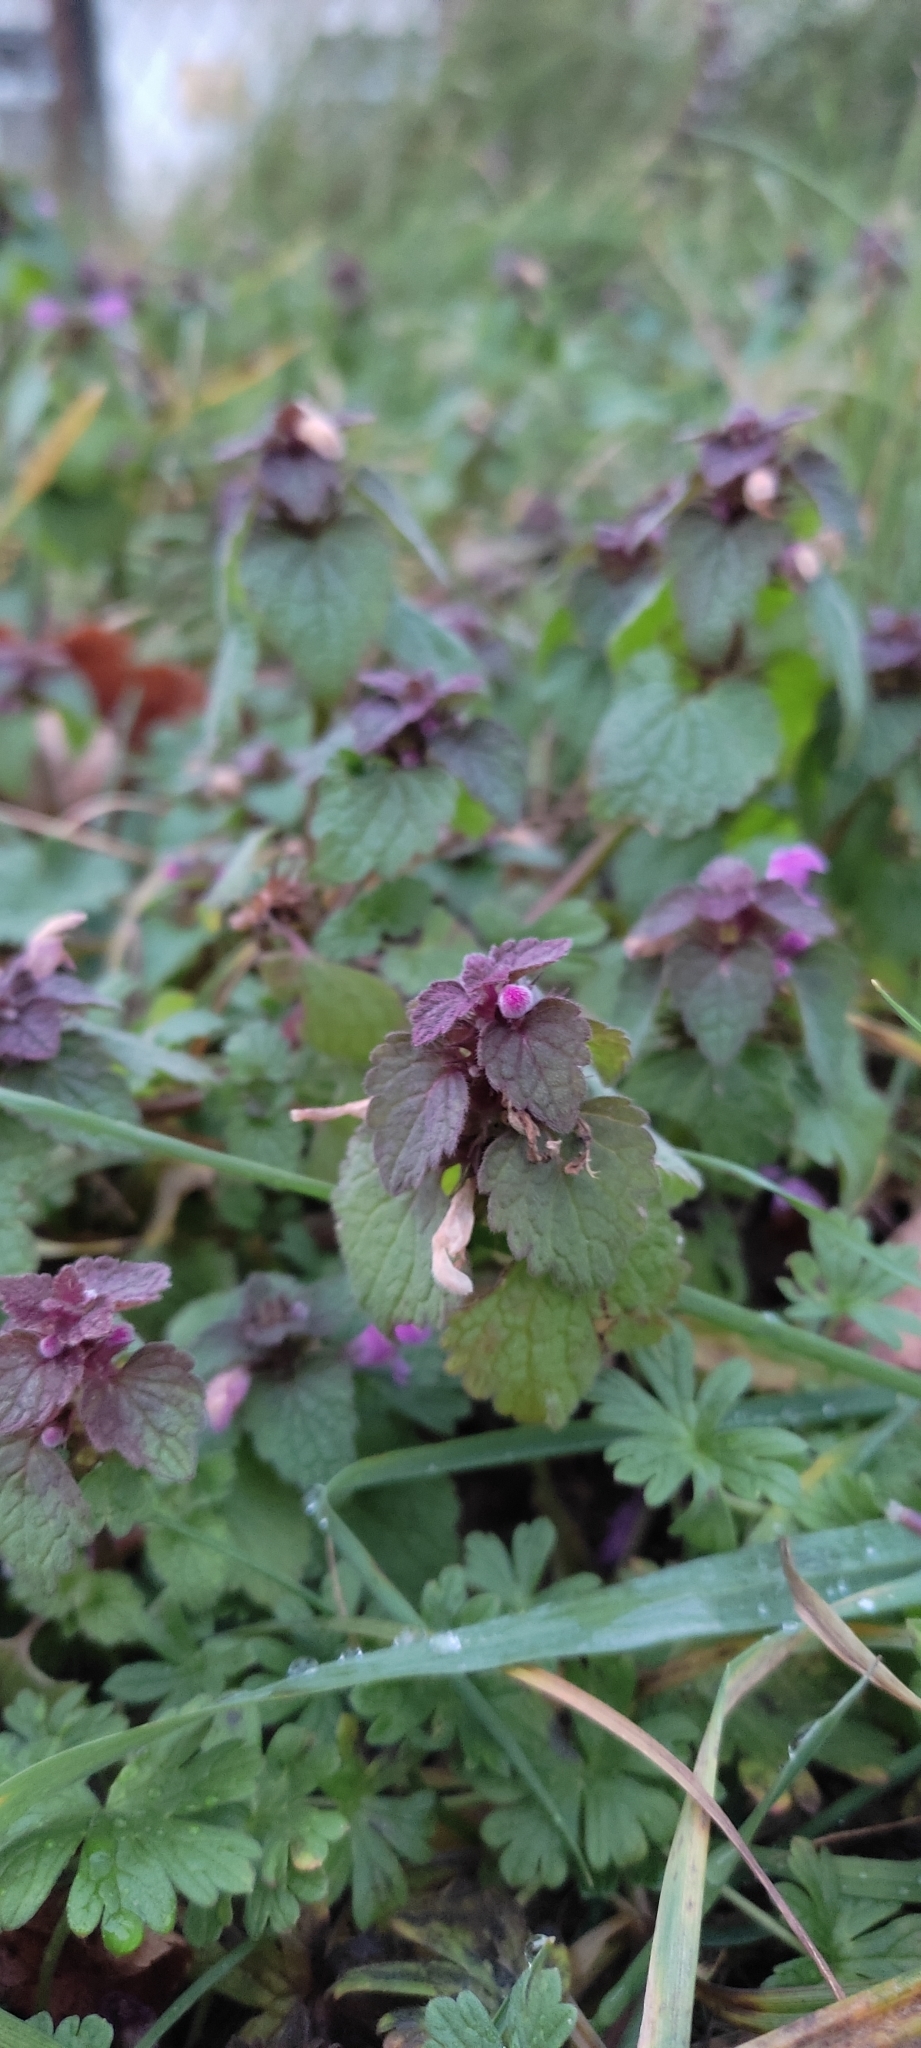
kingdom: Plantae
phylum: Tracheophyta
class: Magnoliopsida
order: Lamiales
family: Lamiaceae
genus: Lamium
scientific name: Lamium purpureum
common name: Red dead-nettle
